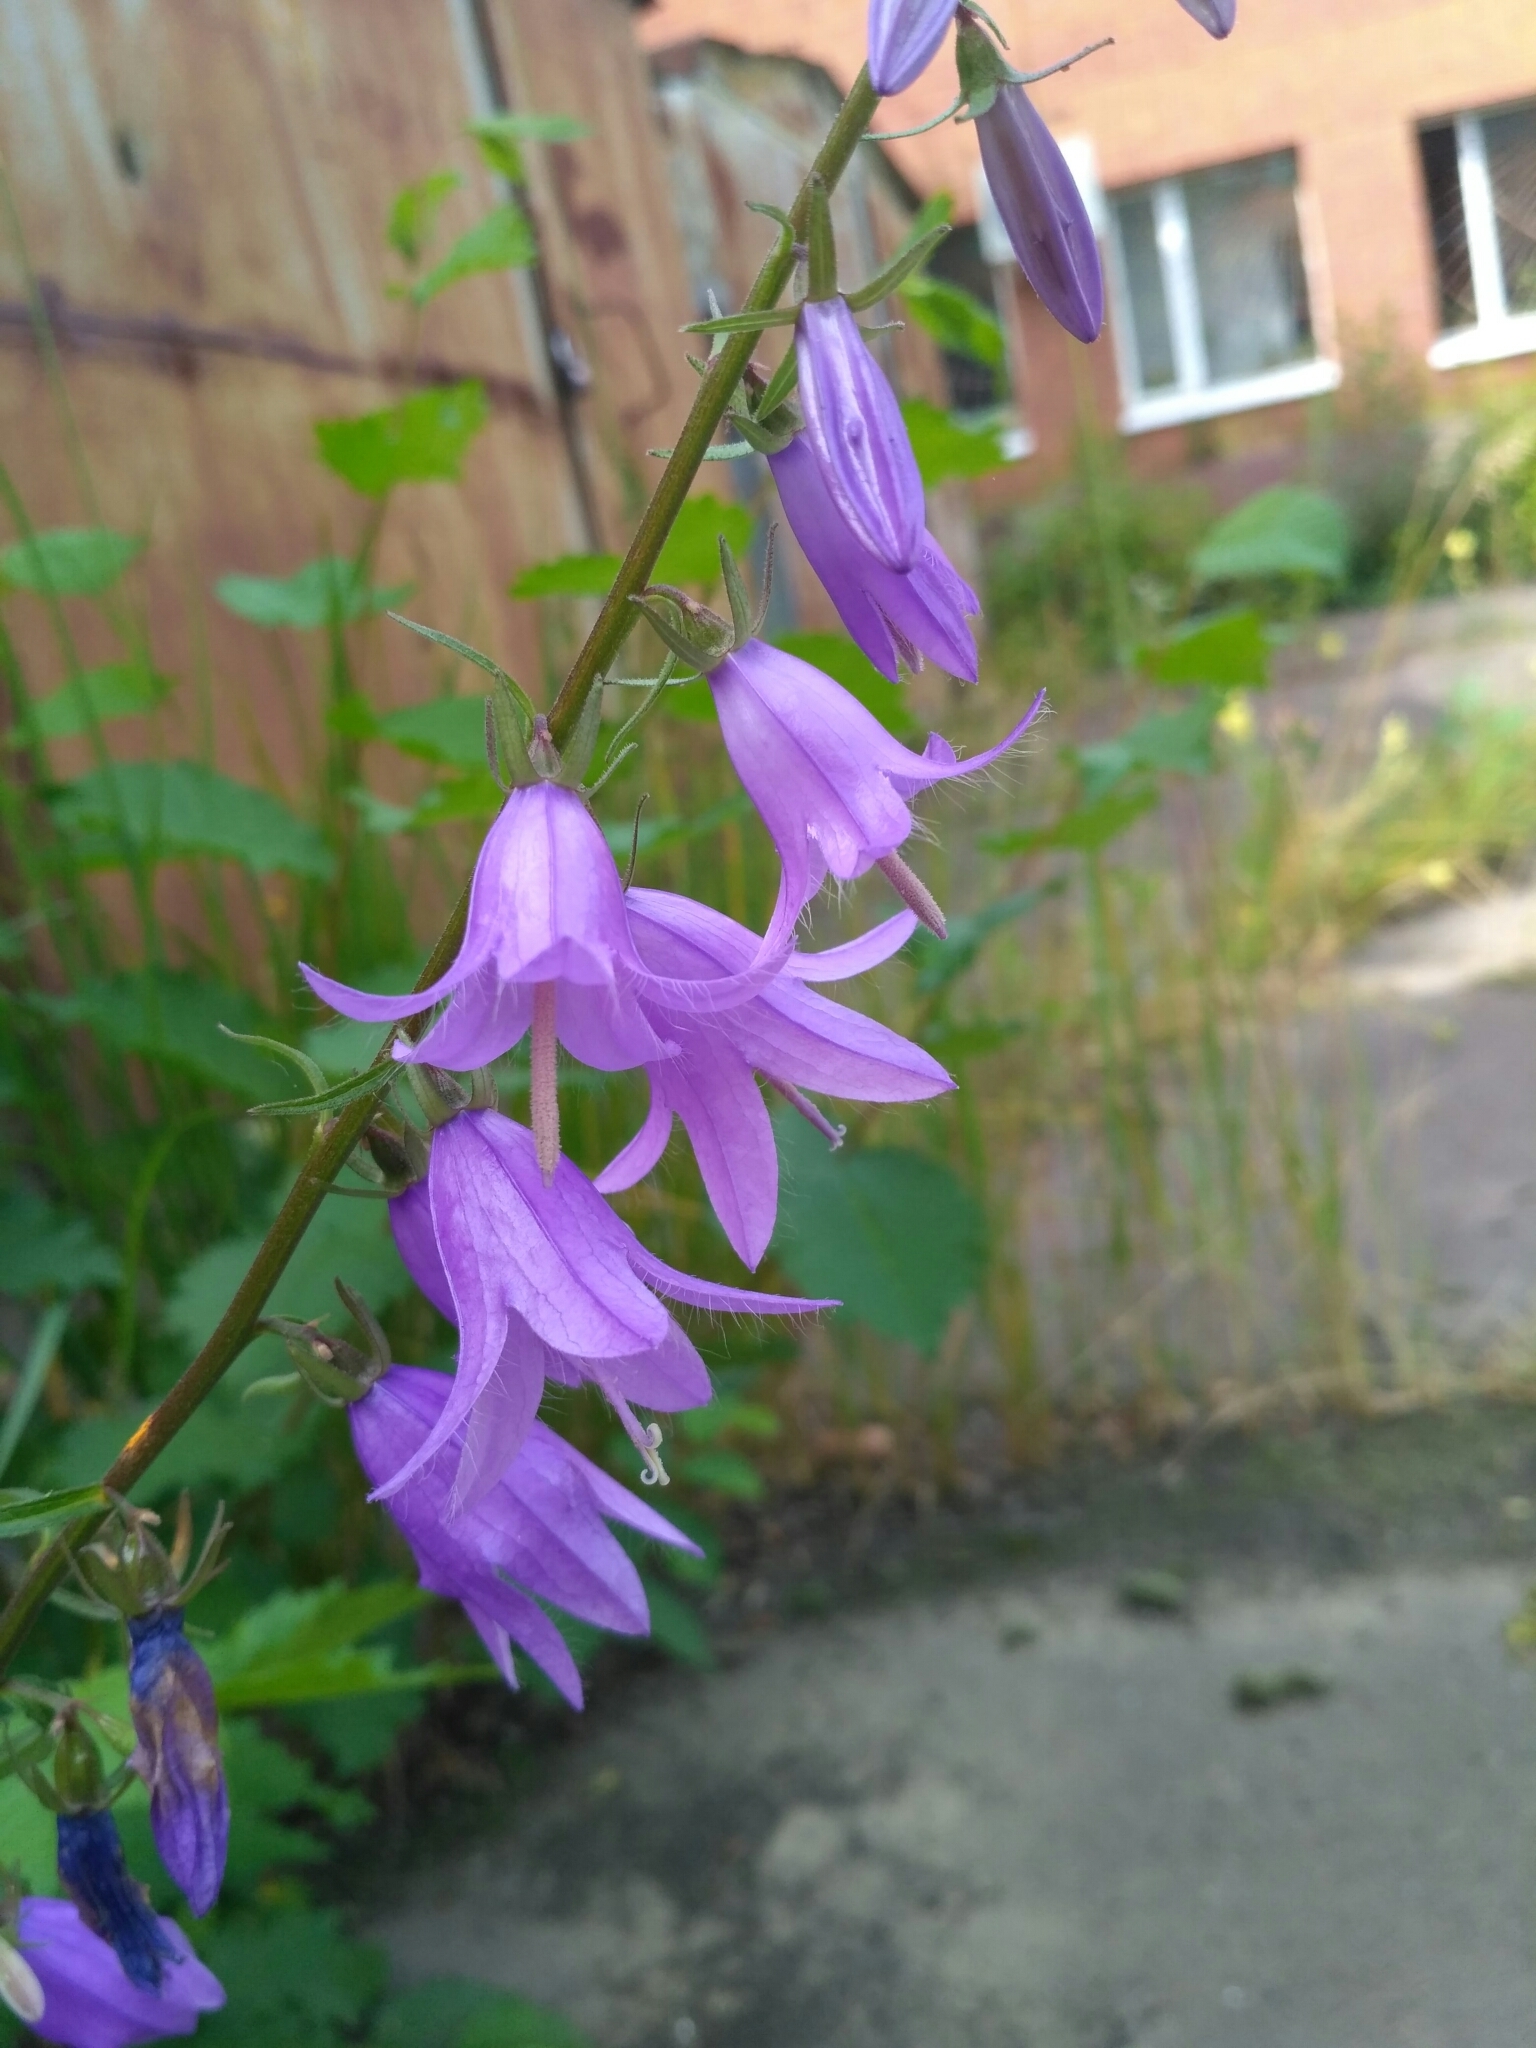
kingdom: Plantae
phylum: Tracheophyta
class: Magnoliopsida
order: Asterales
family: Campanulaceae
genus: Campanula
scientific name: Campanula rapunculoides
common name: Creeping bellflower
